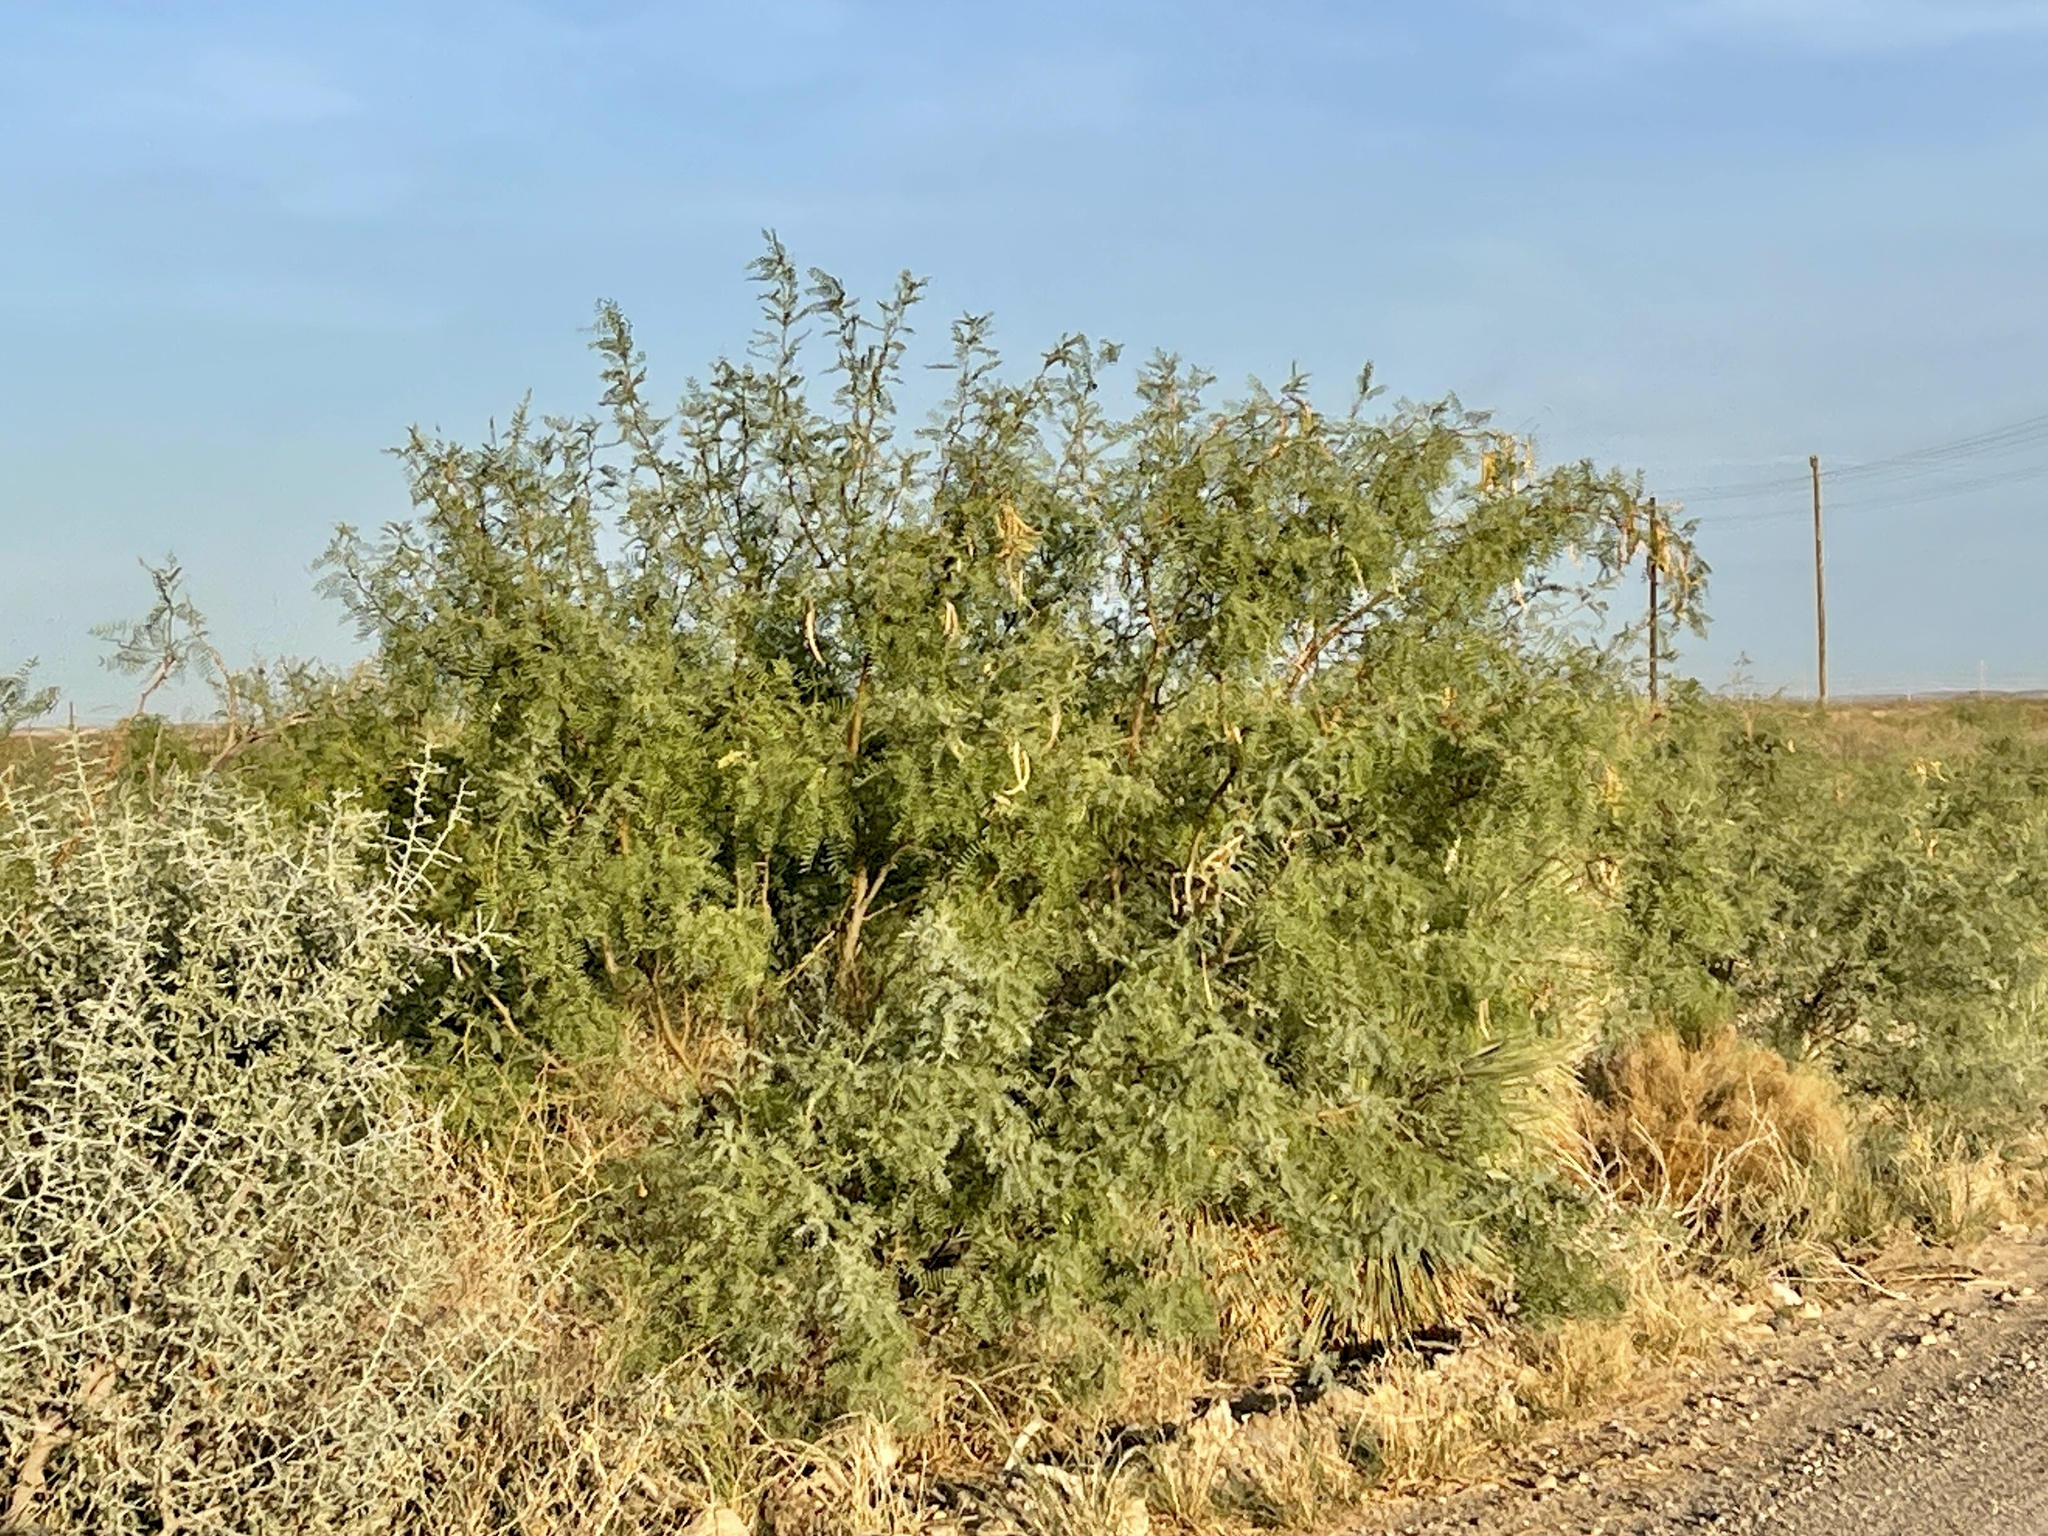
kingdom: Plantae
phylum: Tracheophyta
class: Magnoliopsida
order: Fabales
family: Fabaceae
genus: Prosopis
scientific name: Prosopis glandulosa
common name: Honey mesquite
